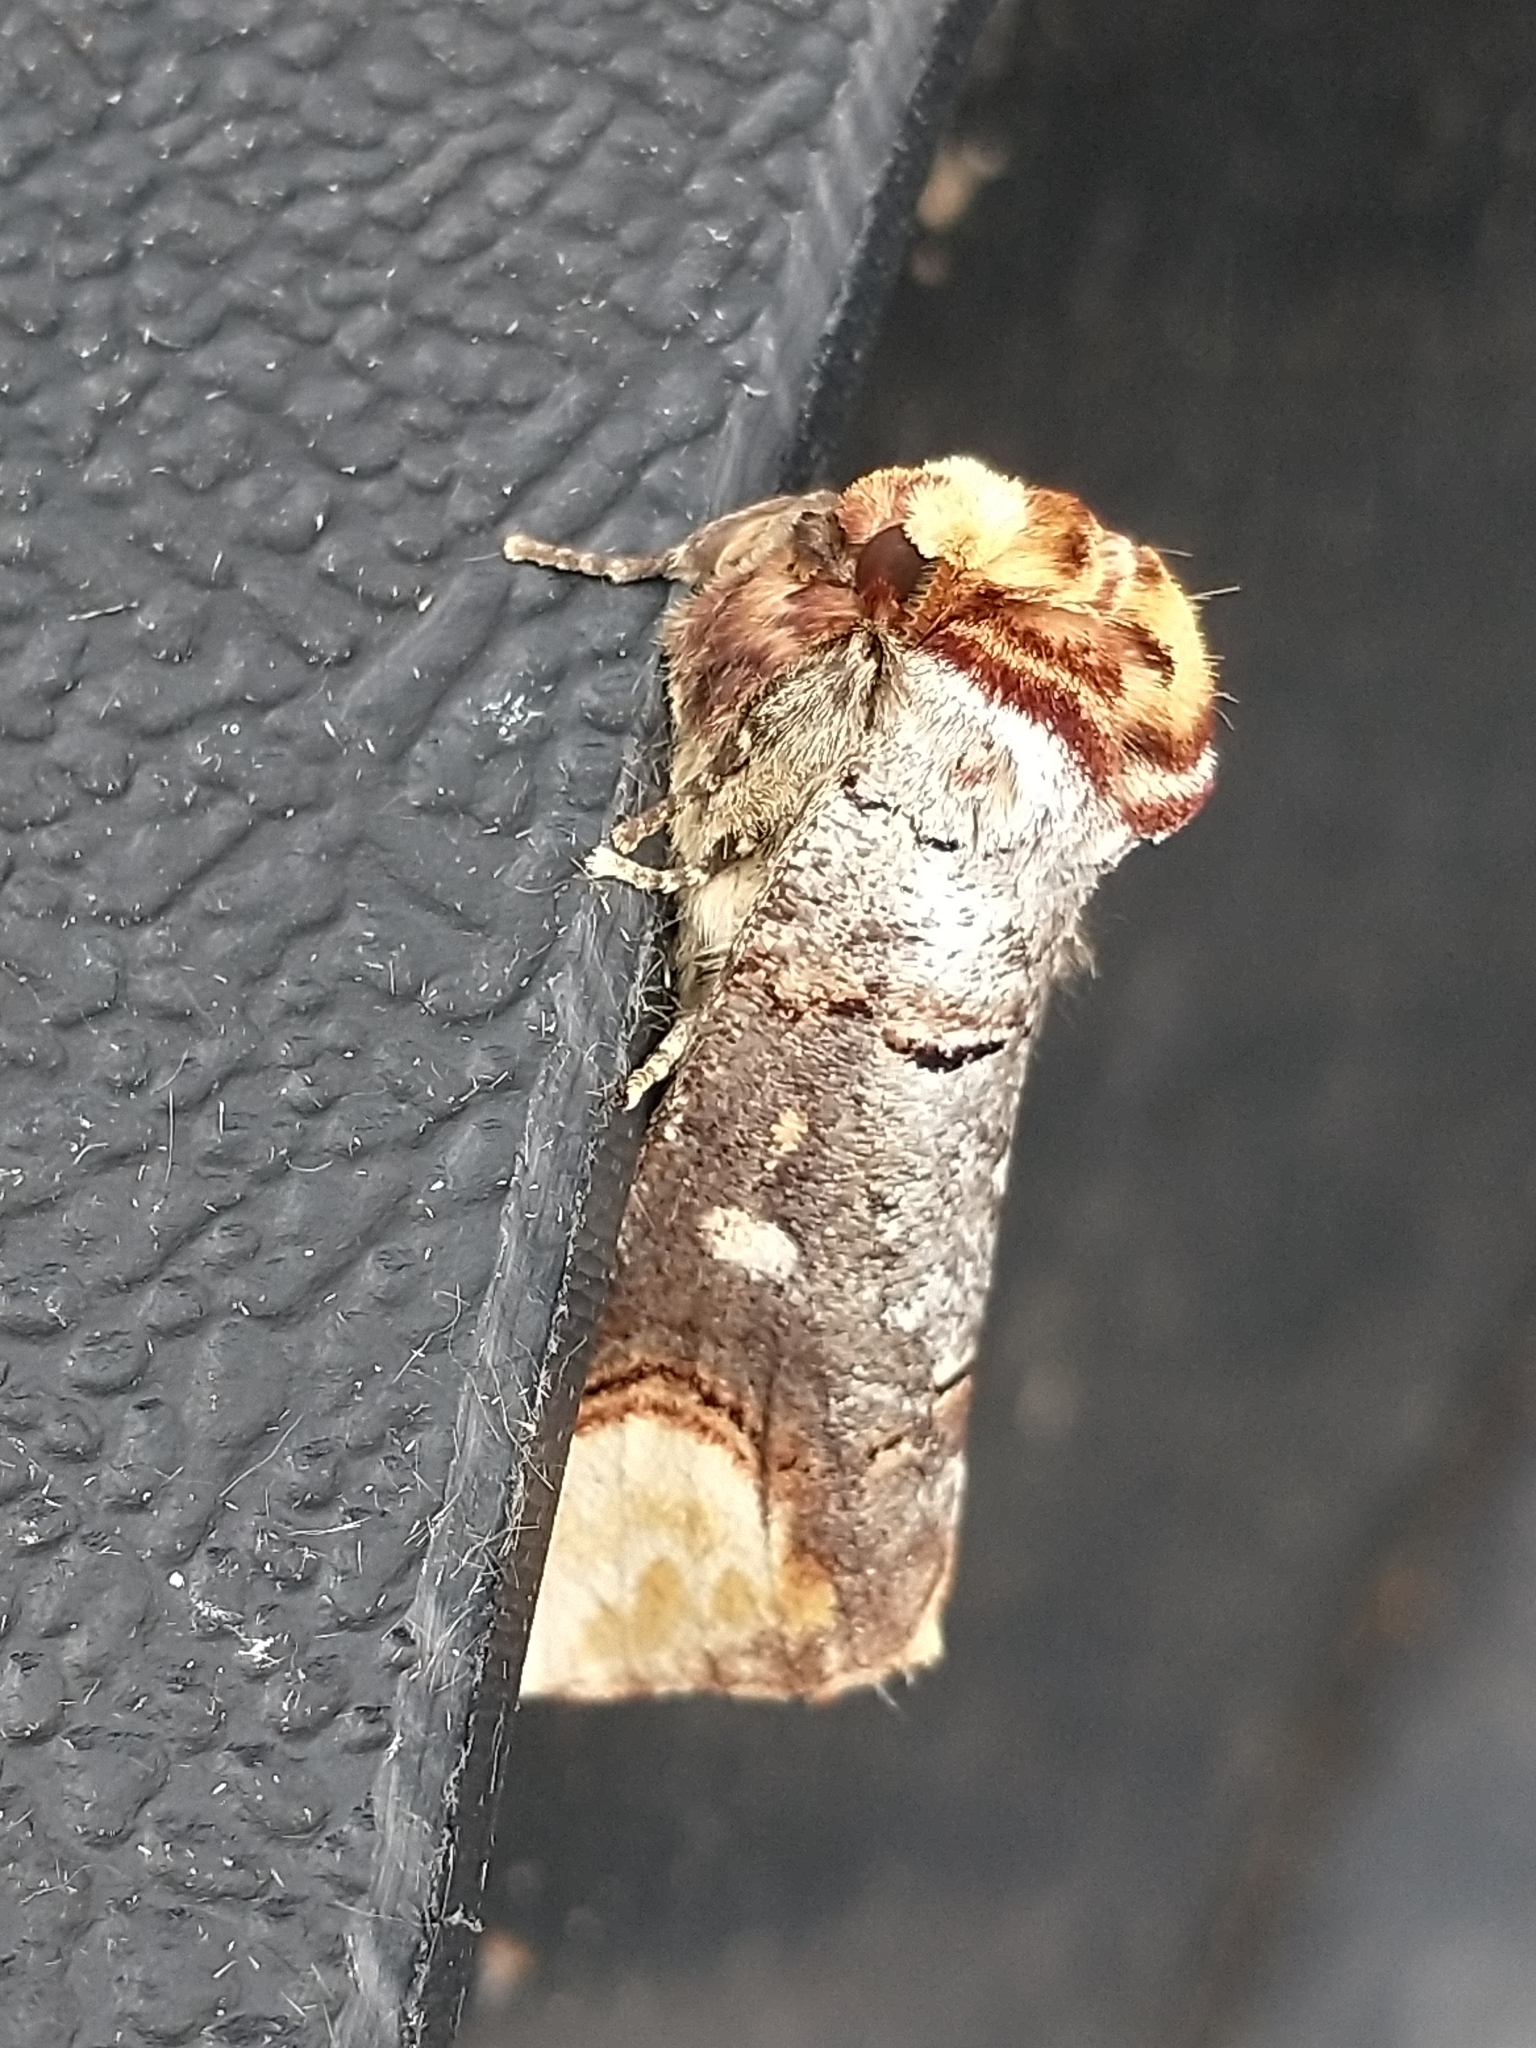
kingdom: Animalia
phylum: Arthropoda
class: Insecta
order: Lepidoptera
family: Notodontidae
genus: Phalera
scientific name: Phalera bucephala
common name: Buff-tip
